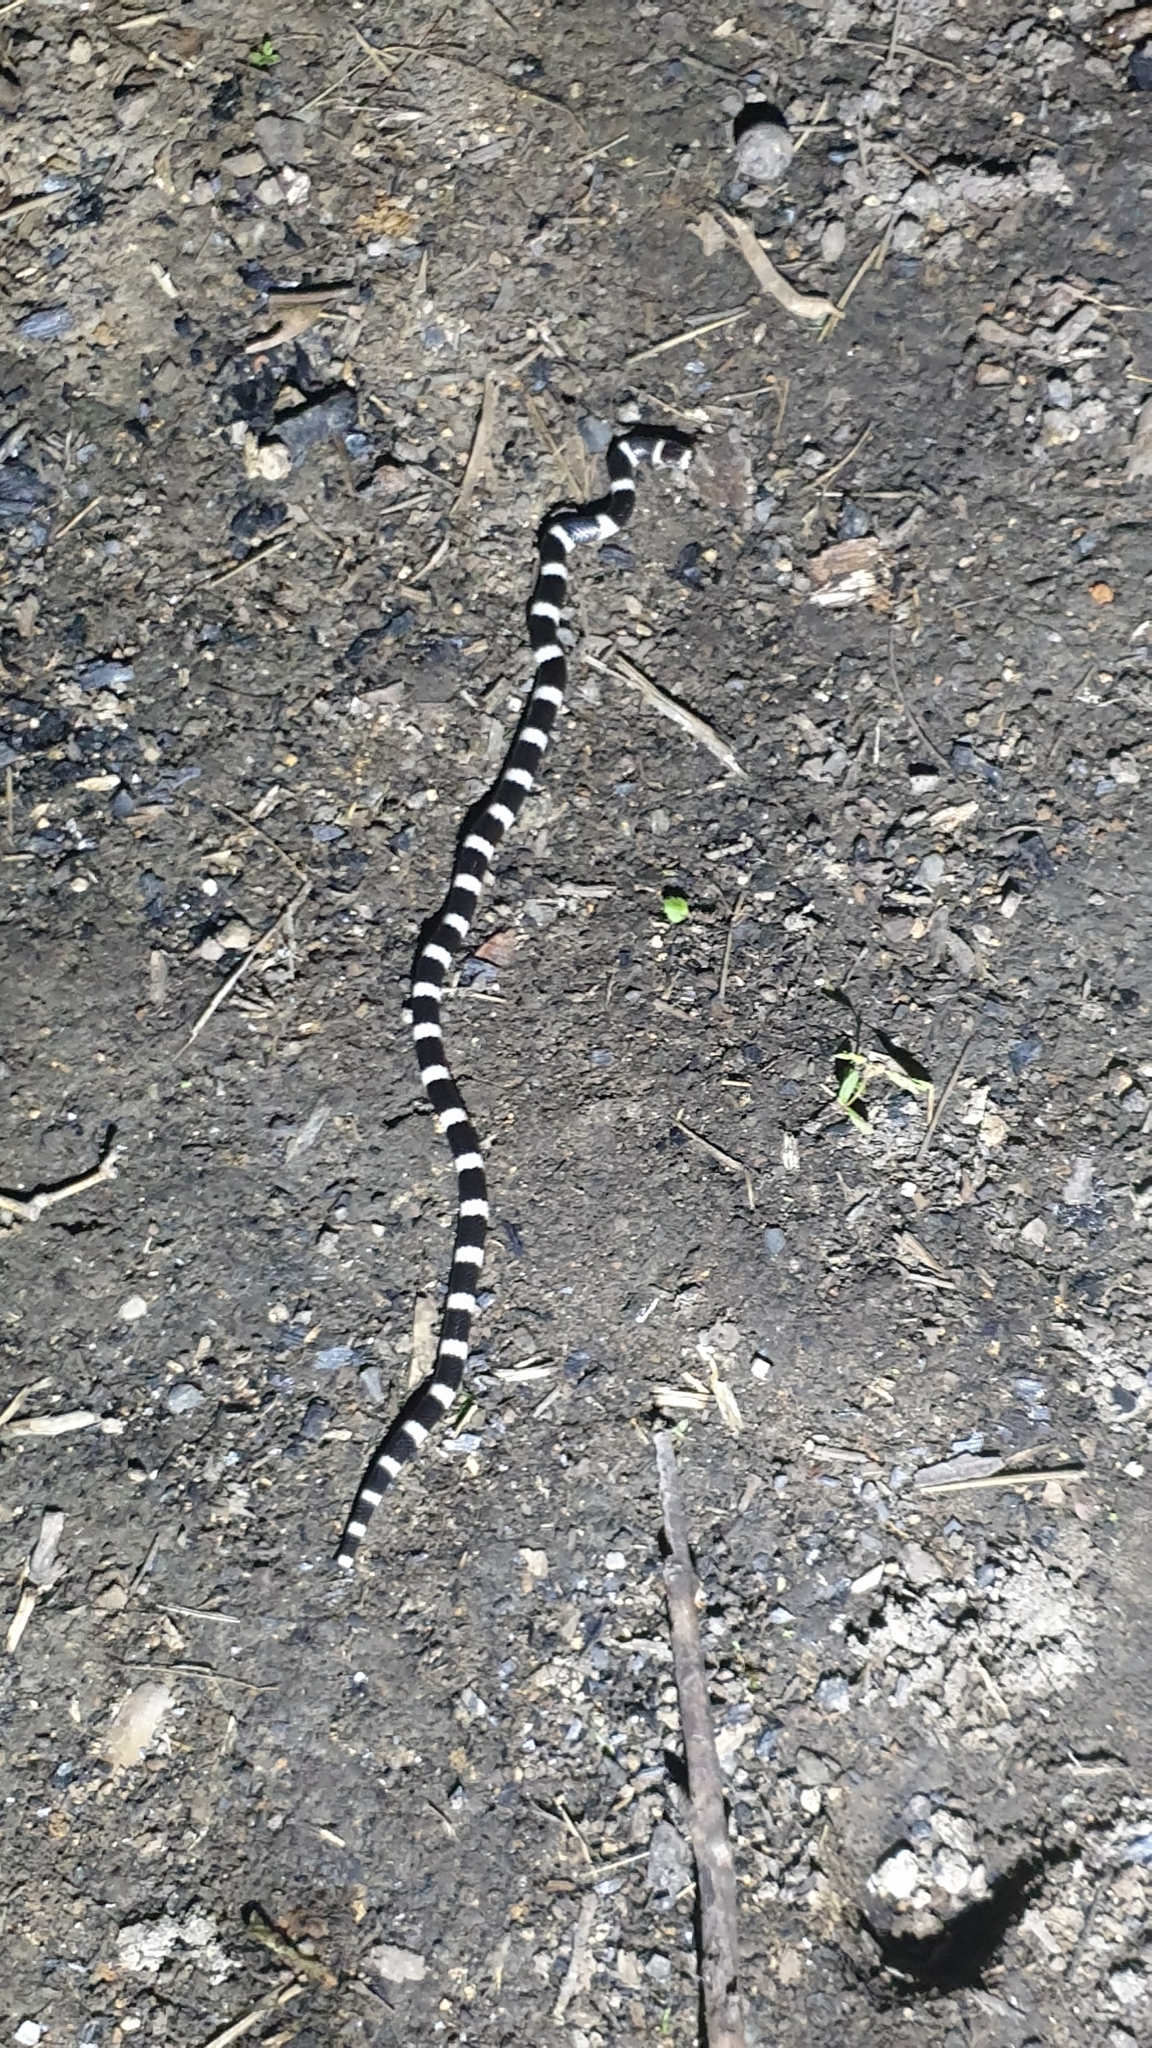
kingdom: Animalia
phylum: Chordata
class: Squamata
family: Elapidae
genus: Vermicella
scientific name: Vermicella annulata
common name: Bandy bandy
